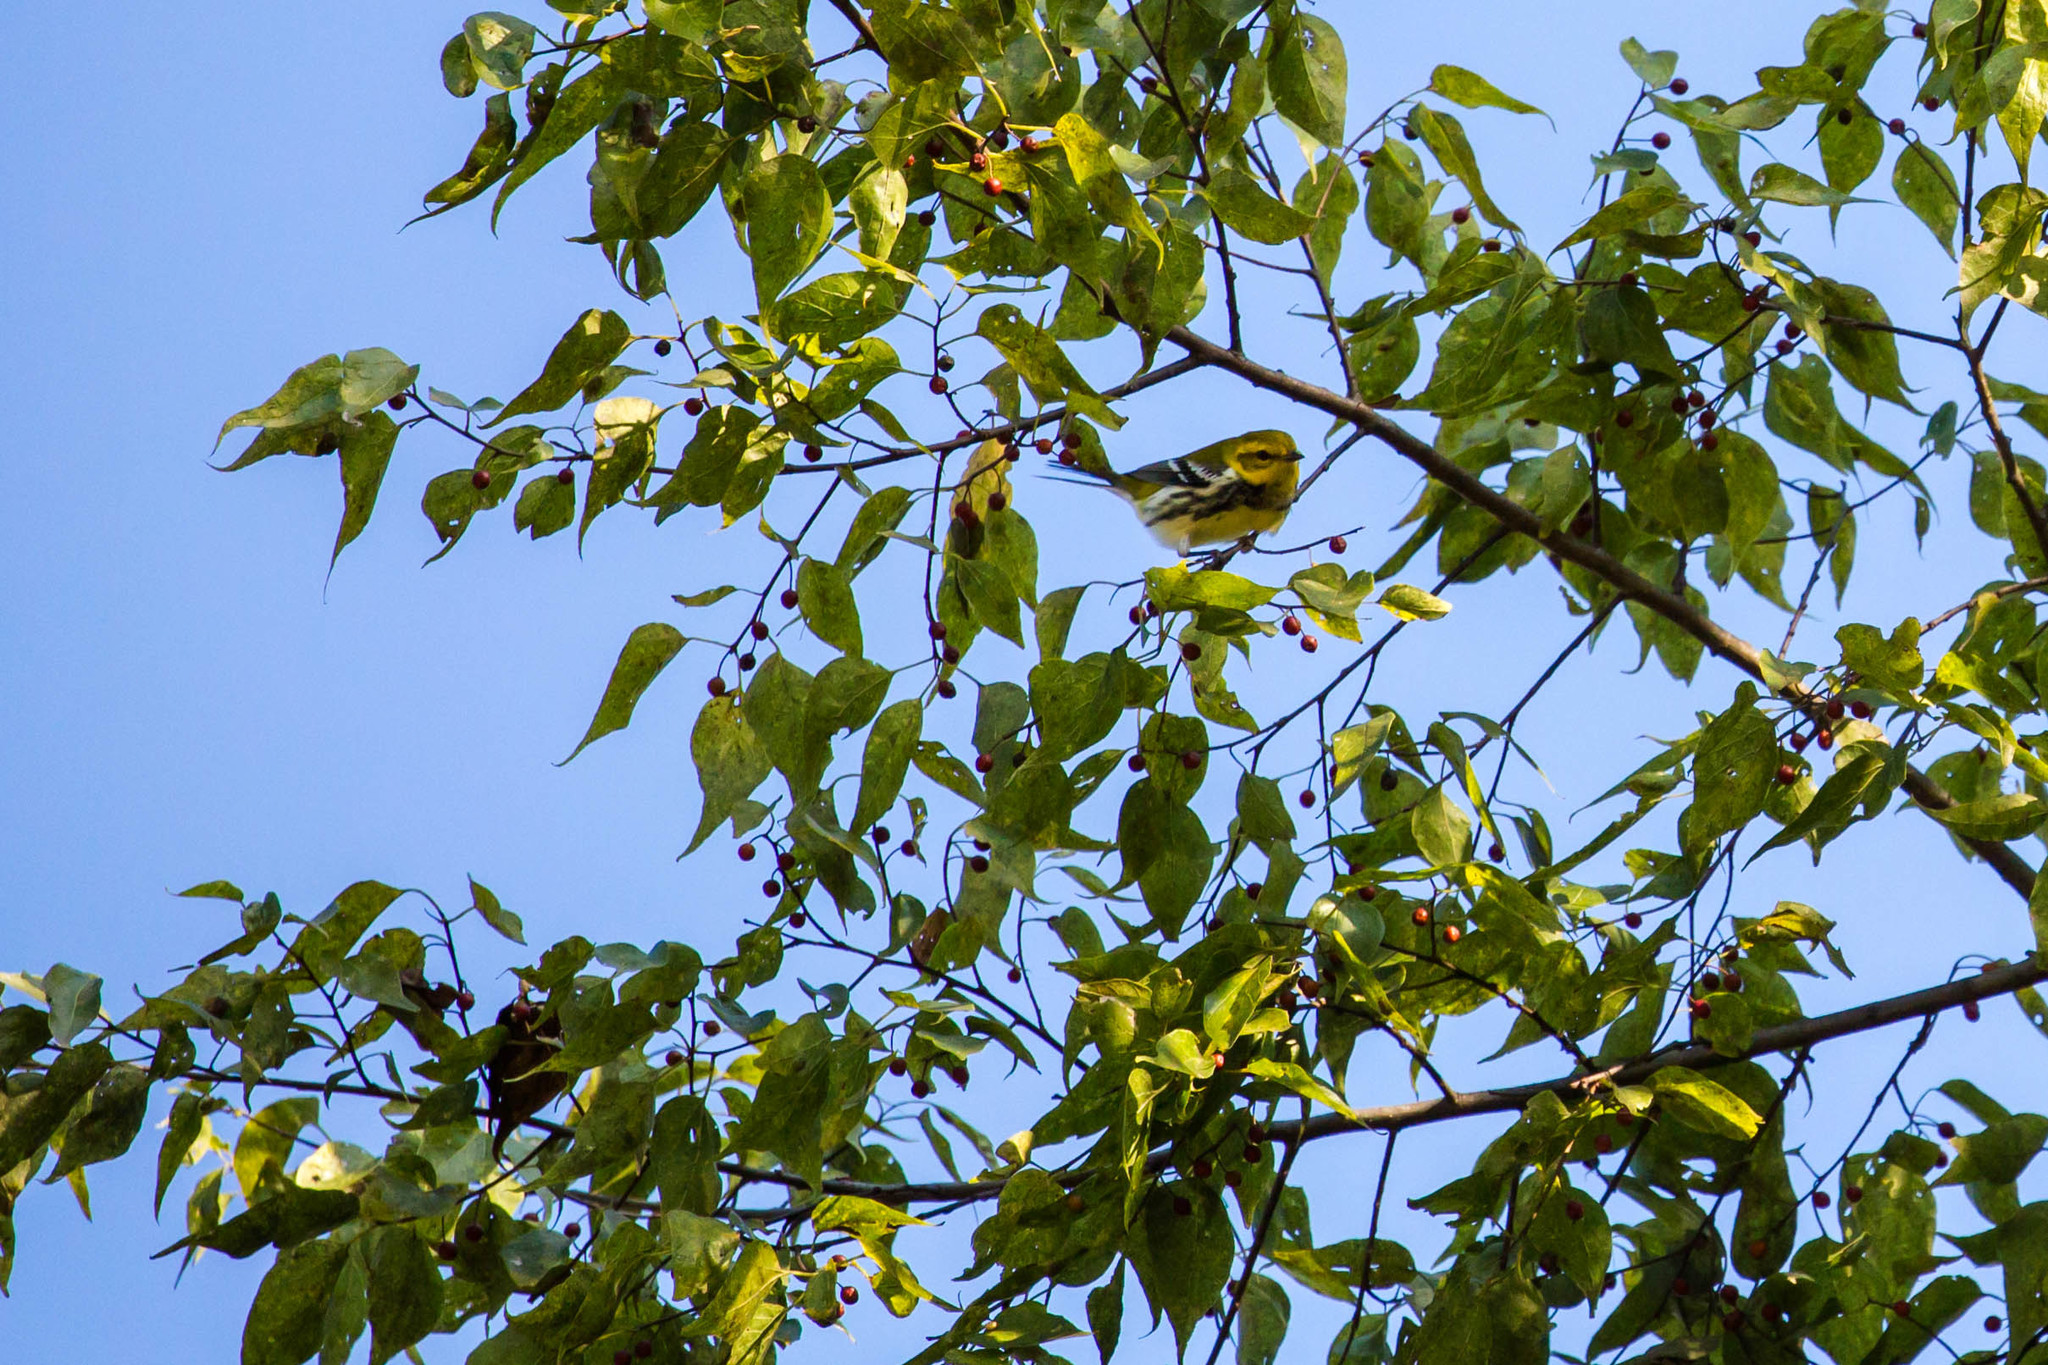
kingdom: Animalia
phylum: Chordata
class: Aves
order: Passeriformes
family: Parulidae
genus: Setophaga
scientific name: Setophaga virens
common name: Black-throated green warbler
